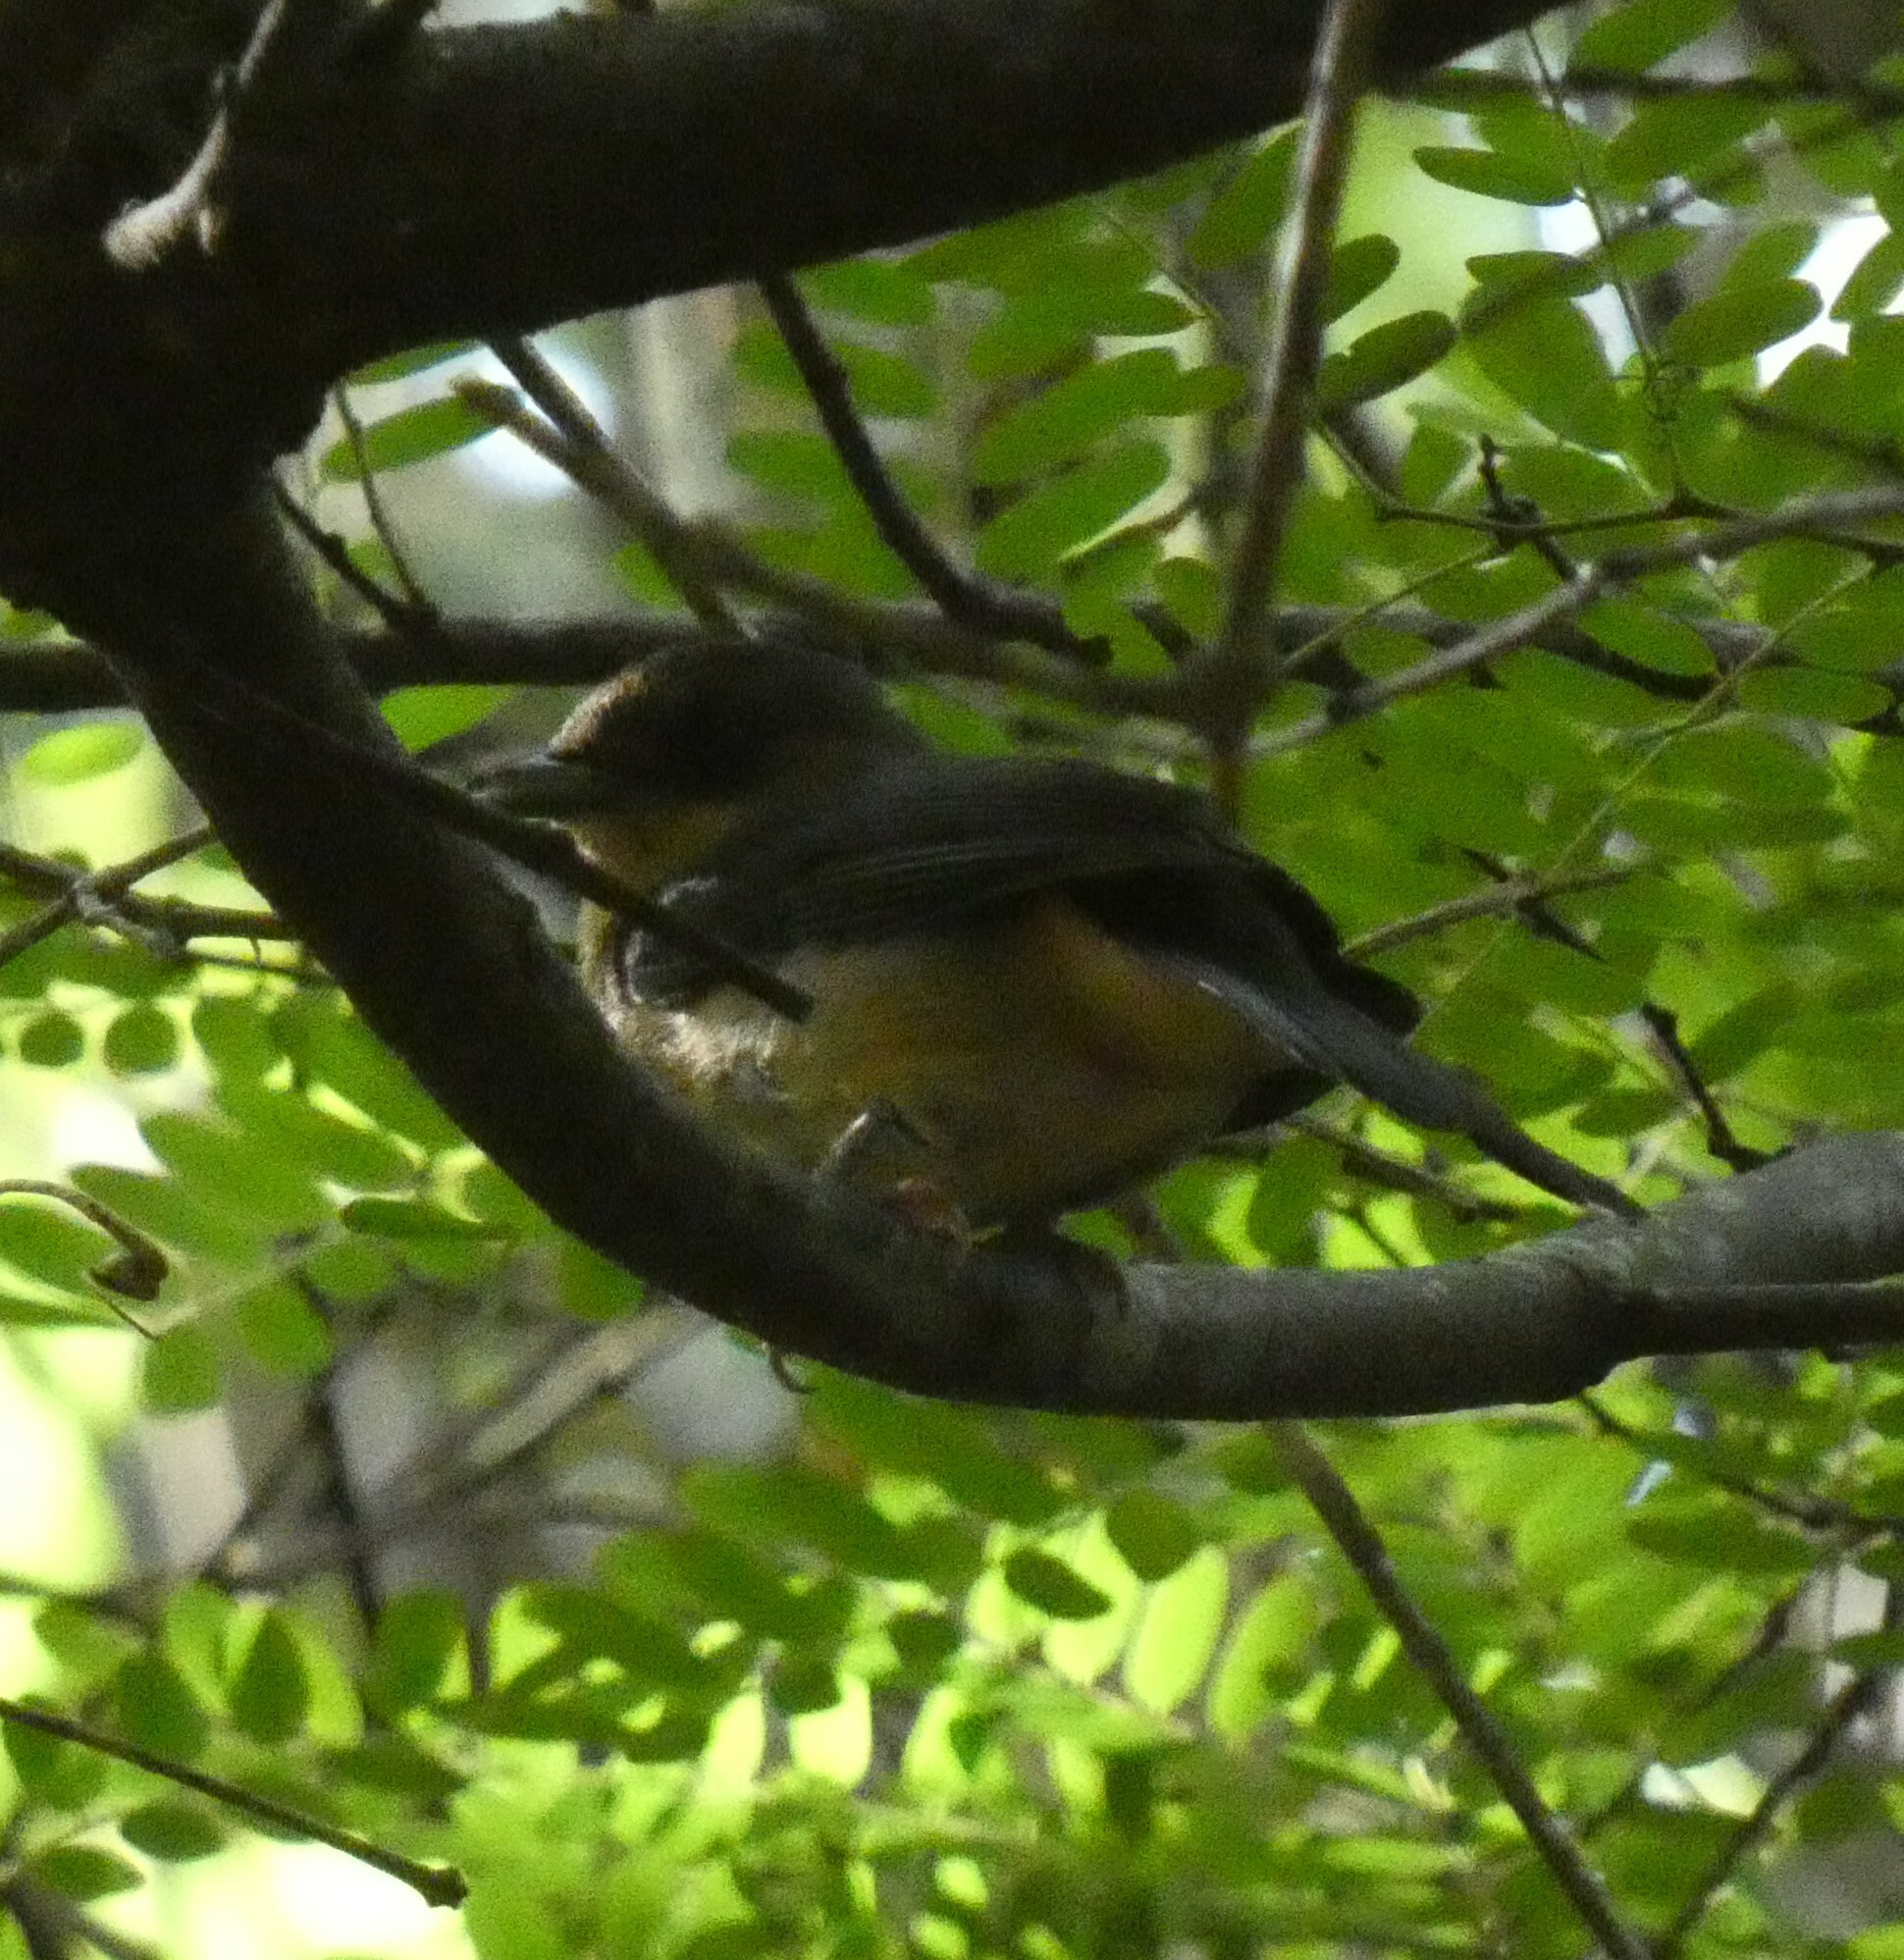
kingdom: Animalia
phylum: Chordata
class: Aves
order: Passeriformes
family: Thraupidae
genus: Trichothraupis
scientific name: Trichothraupis melanops
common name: Black-goggled tanager
